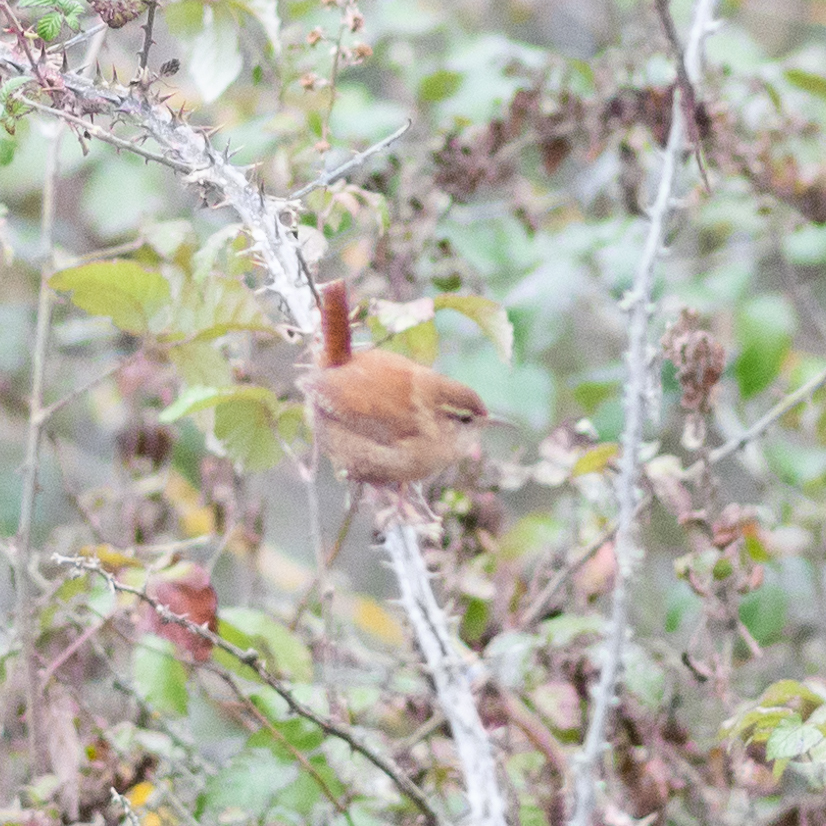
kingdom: Animalia
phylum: Chordata
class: Aves
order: Passeriformes
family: Troglodytidae
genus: Troglodytes
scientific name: Troglodytes troglodytes
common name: Eurasian wren
